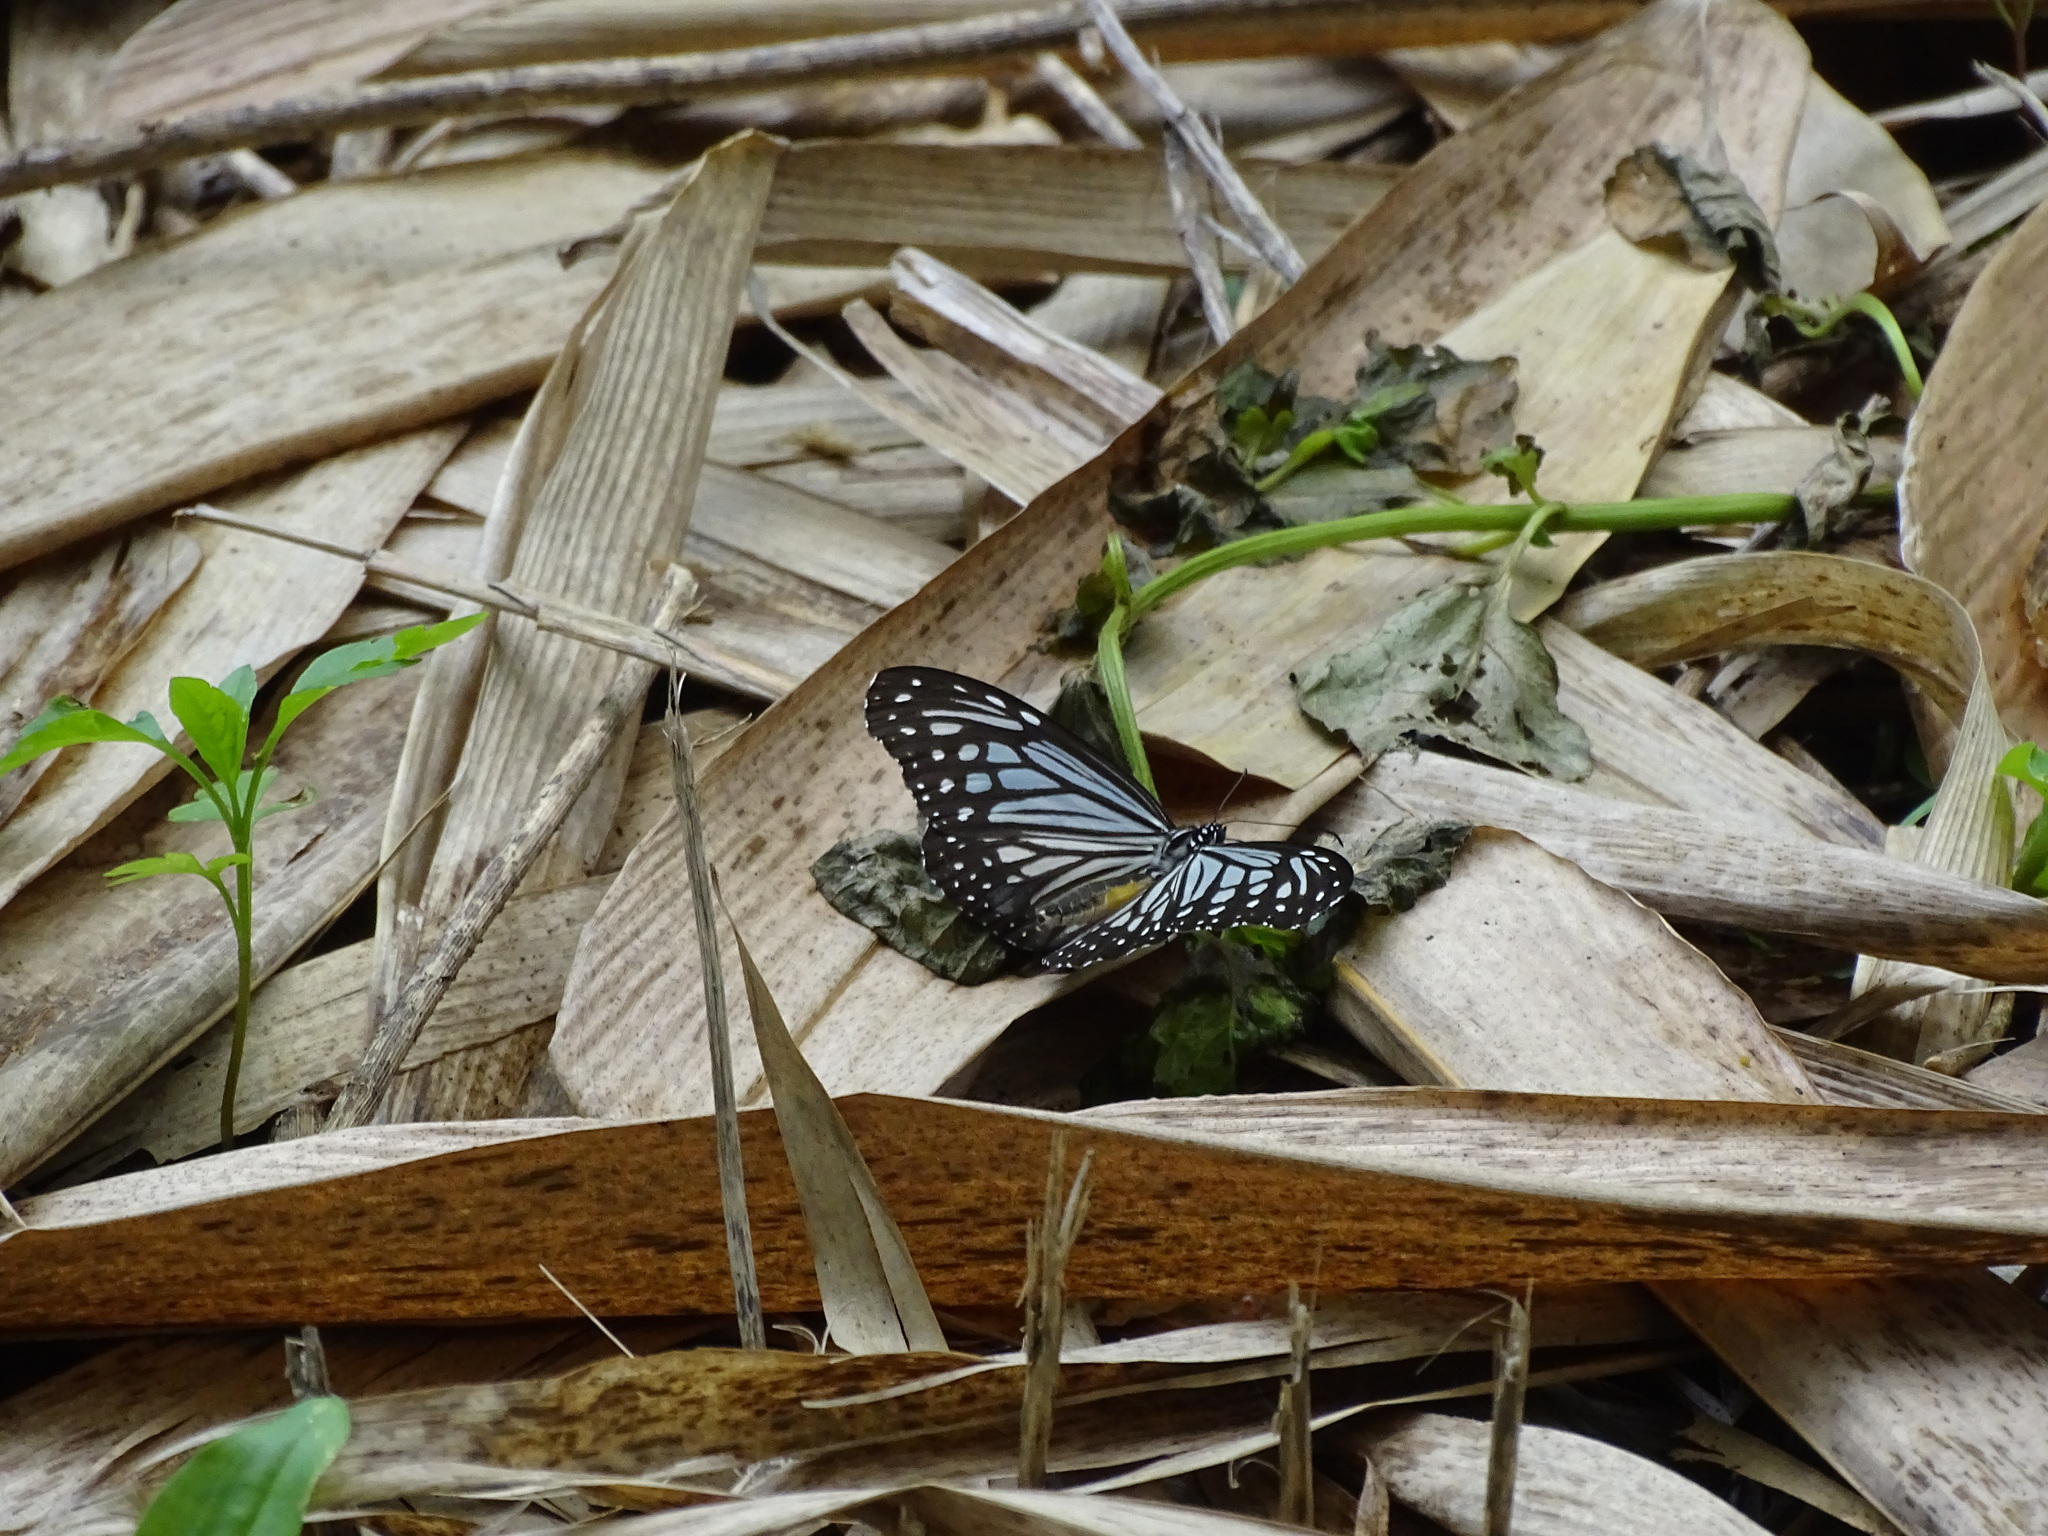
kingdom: Animalia
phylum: Arthropoda
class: Insecta
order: Lepidoptera
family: Nymphalidae
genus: Parantica
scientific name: Parantica aglea
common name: Glassy tiger
